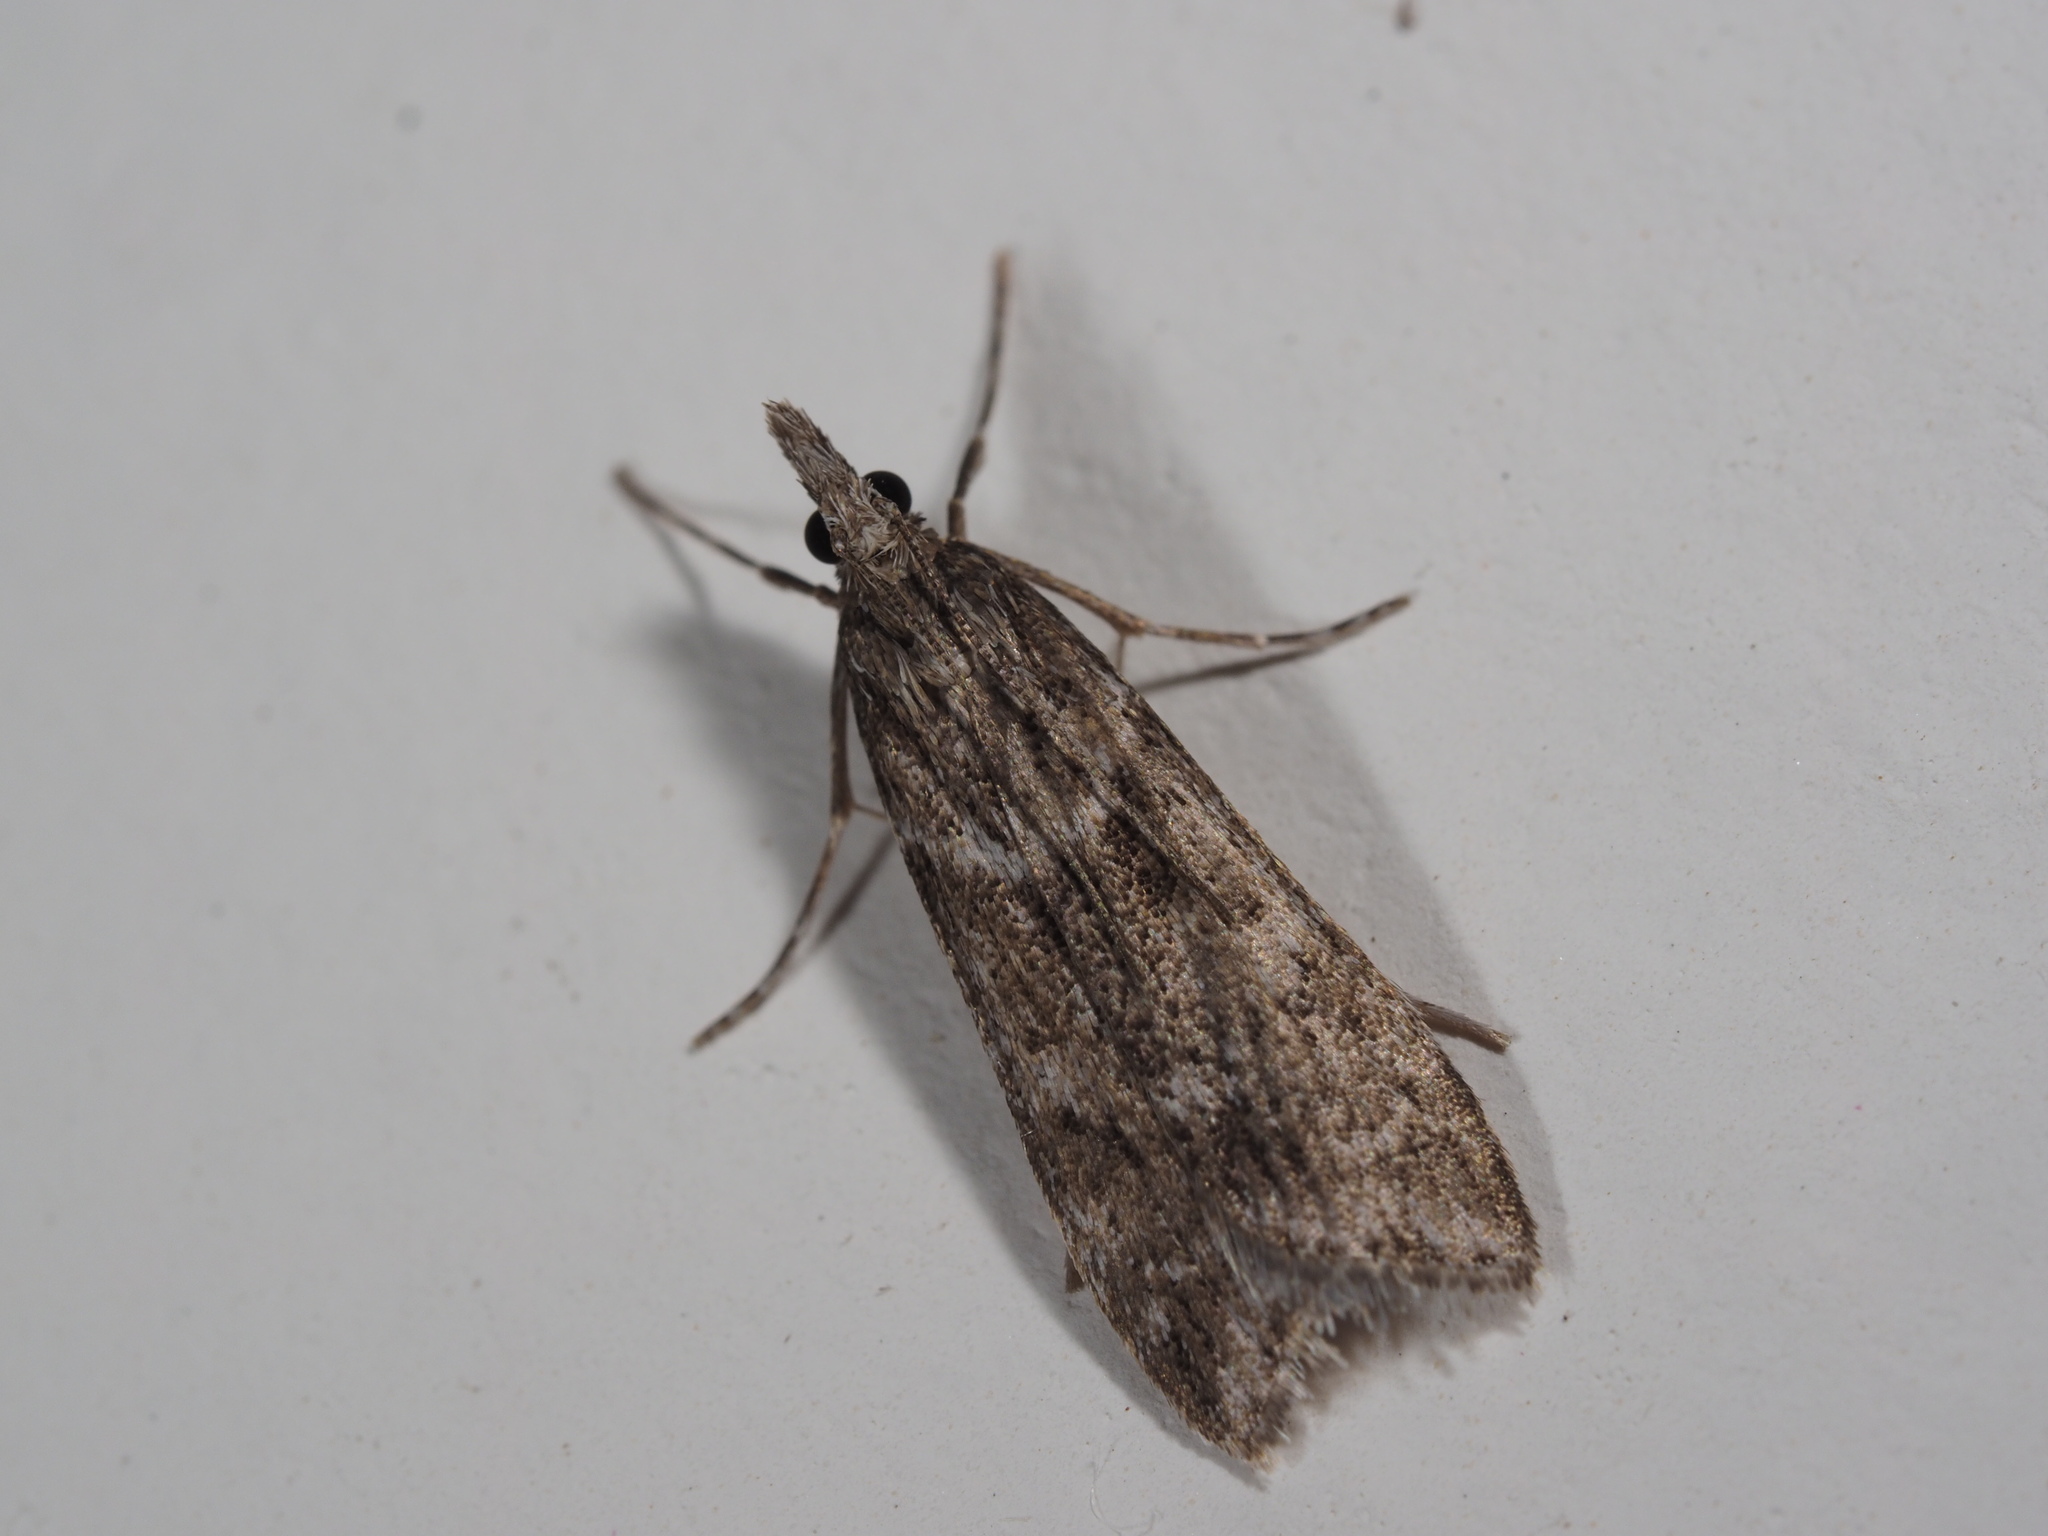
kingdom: Animalia
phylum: Arthropoda
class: Insecta
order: Lepidoptera
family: Crambidae
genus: Eudonia
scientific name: Eudonia angustea
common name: Narrow-winged grey
